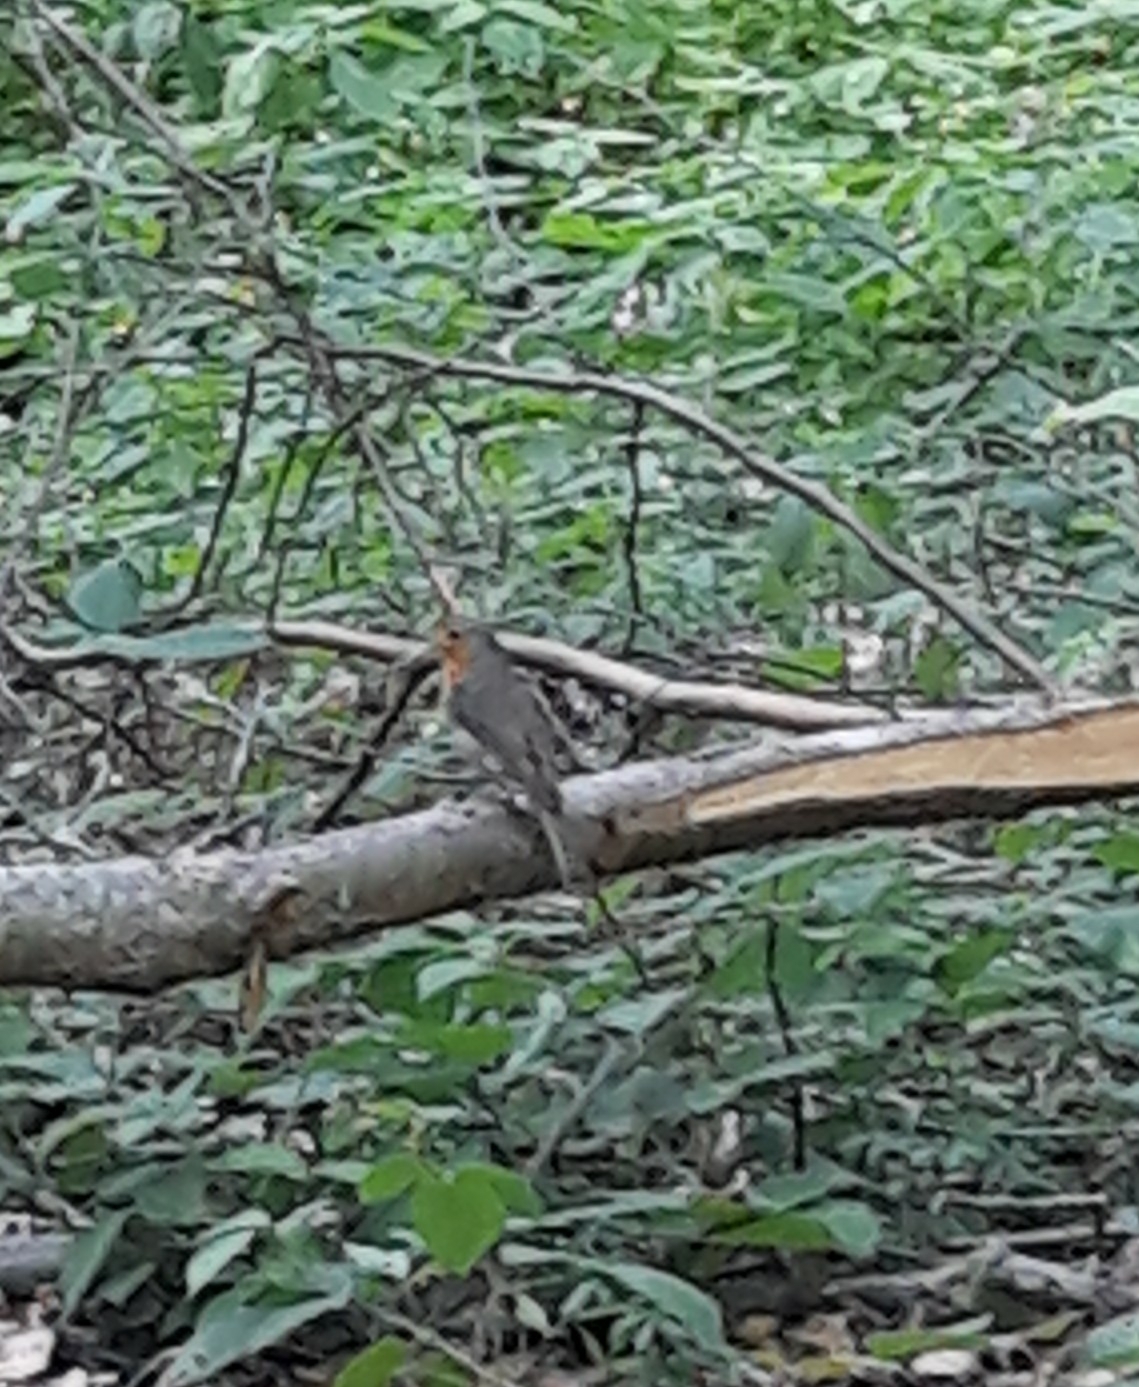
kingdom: Animalia
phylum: Chordata
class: Aves
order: Passeriformes
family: Muscicapidae
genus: Erithacus
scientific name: Erithacus rubecula
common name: European robin
